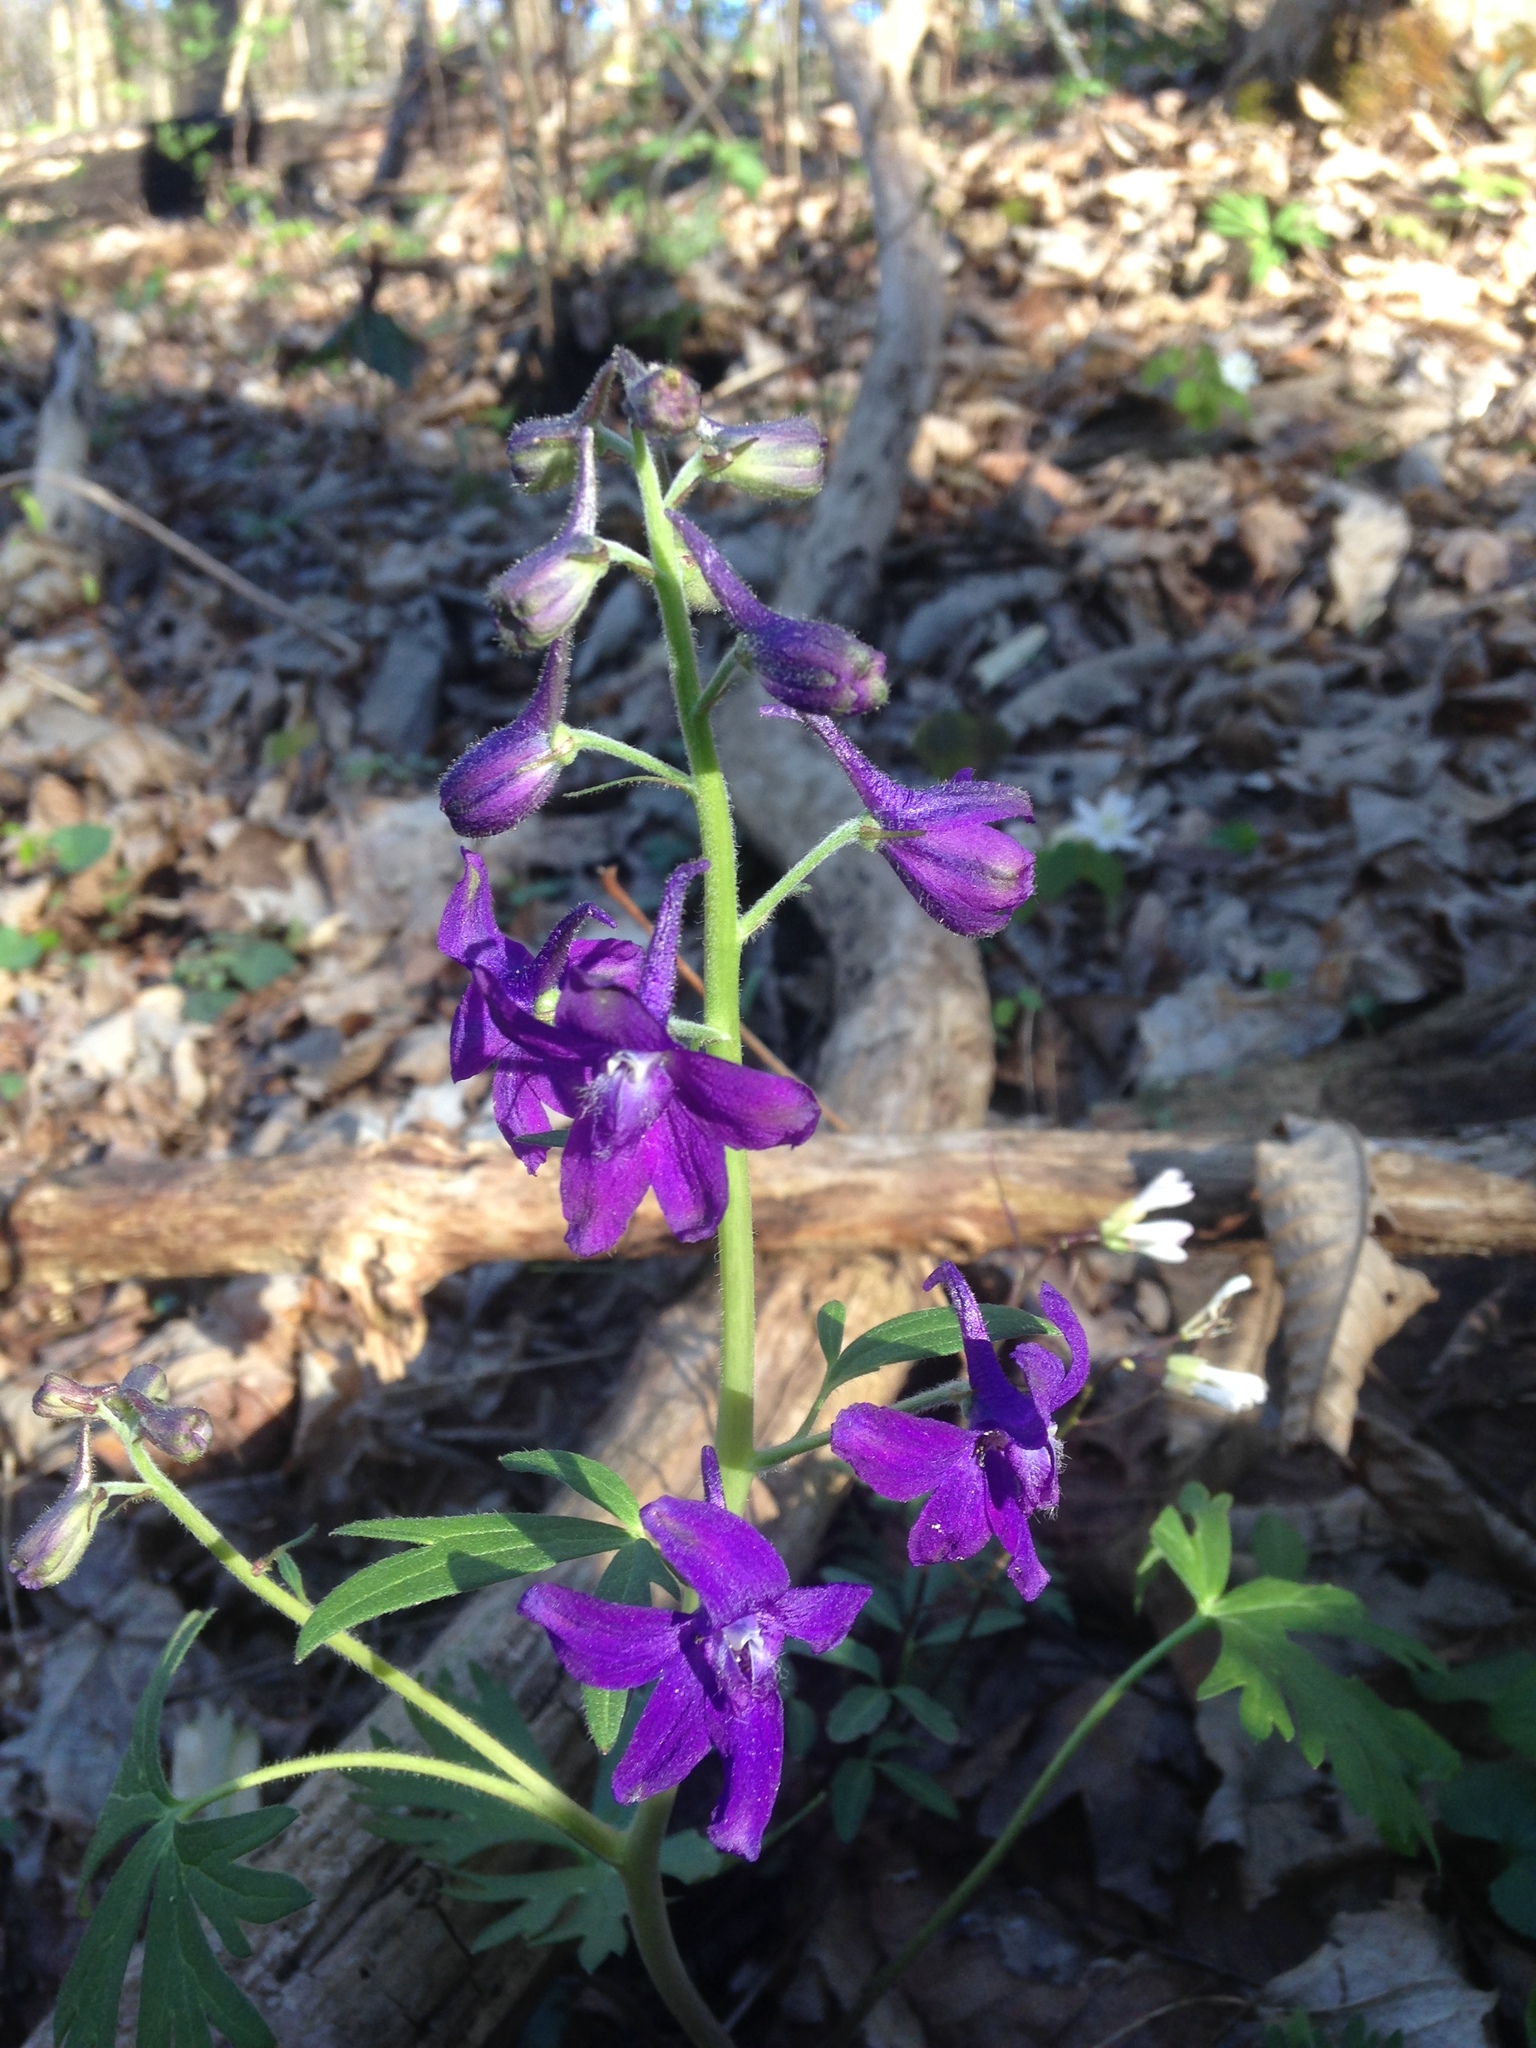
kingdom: Plantae
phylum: Tracheophyta
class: Magnoliopsida
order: Ranunculales
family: Ranunculaceae
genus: Delphinium
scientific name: Delphinium tricorne
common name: Dwarf larkspur
